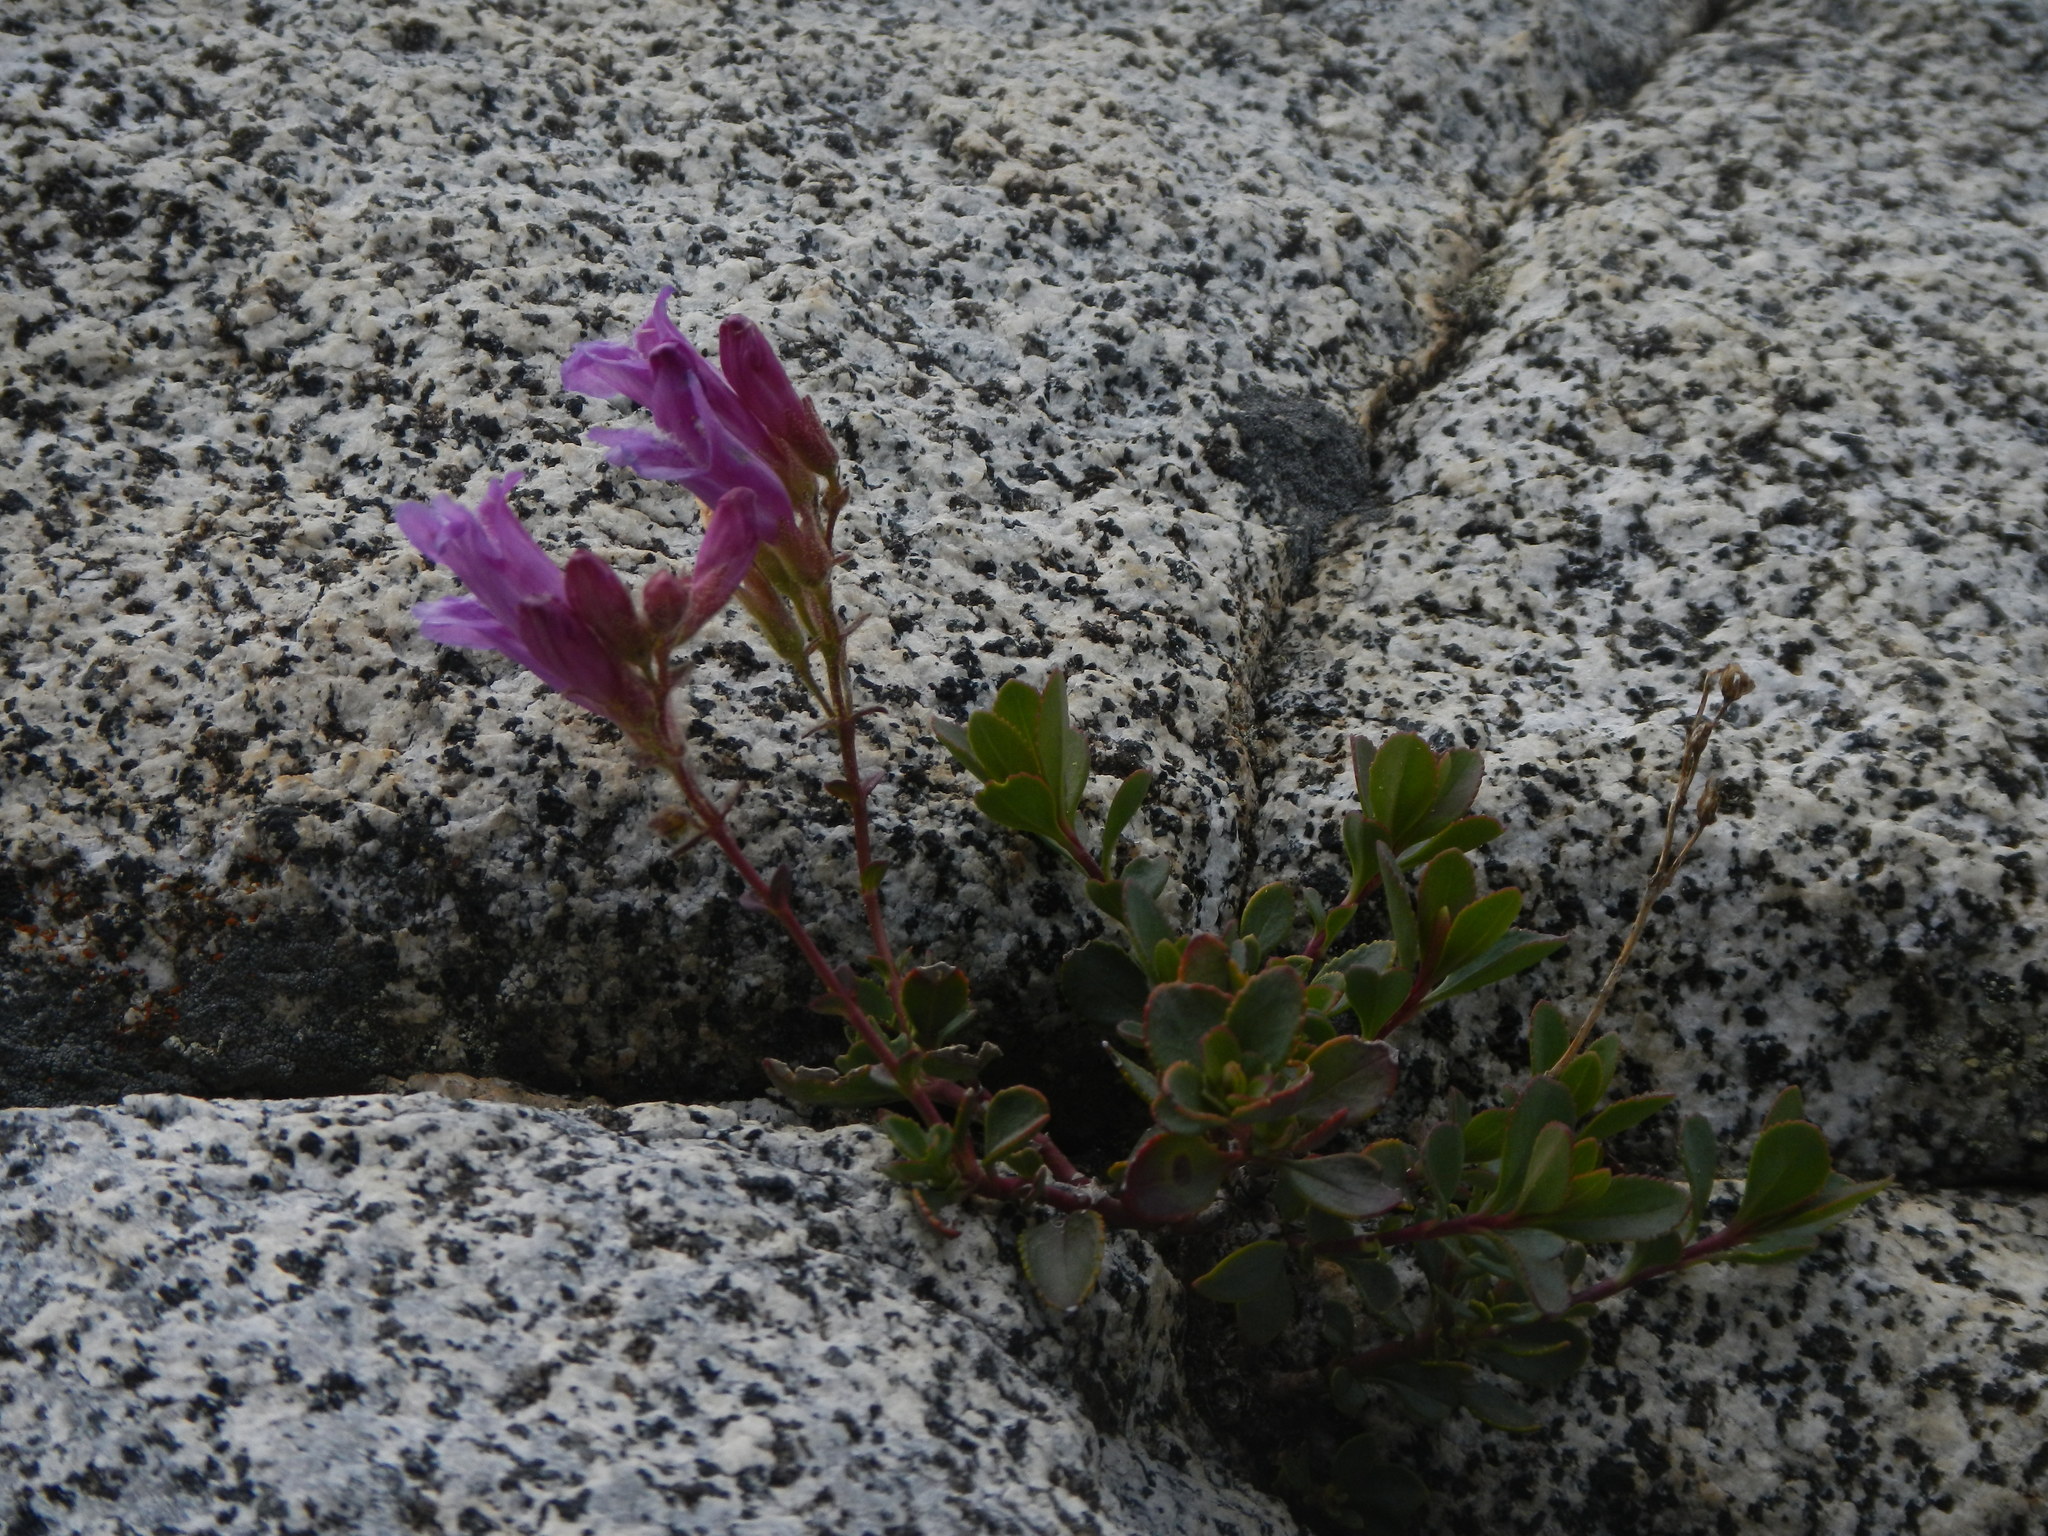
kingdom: Plantae
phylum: Tracheophyta
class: Magnoliopsida
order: Lamiales
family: Plantaginaceae
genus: Penstemon
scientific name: Penstemon davidsonii
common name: Davidson's penstemon
